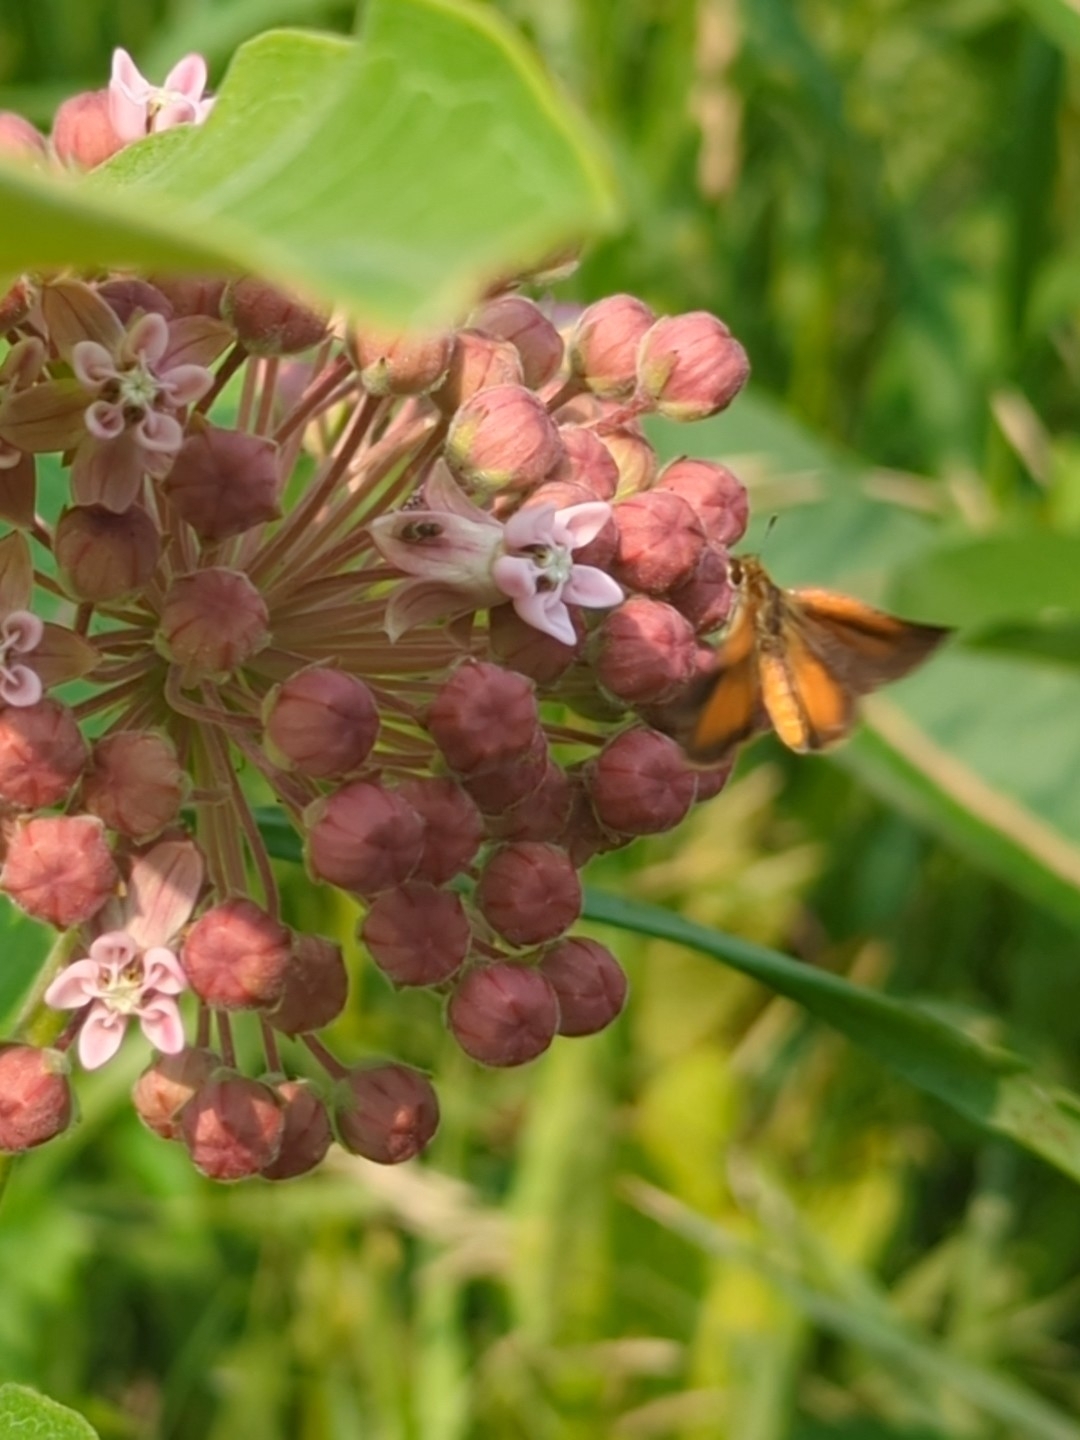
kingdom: Animalia
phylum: Arthropoda
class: Insecta
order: Lepidoptera
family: Hesperiidae
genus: Ancyloxypha
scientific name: Ancyloxypha numitor
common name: Least skipper
